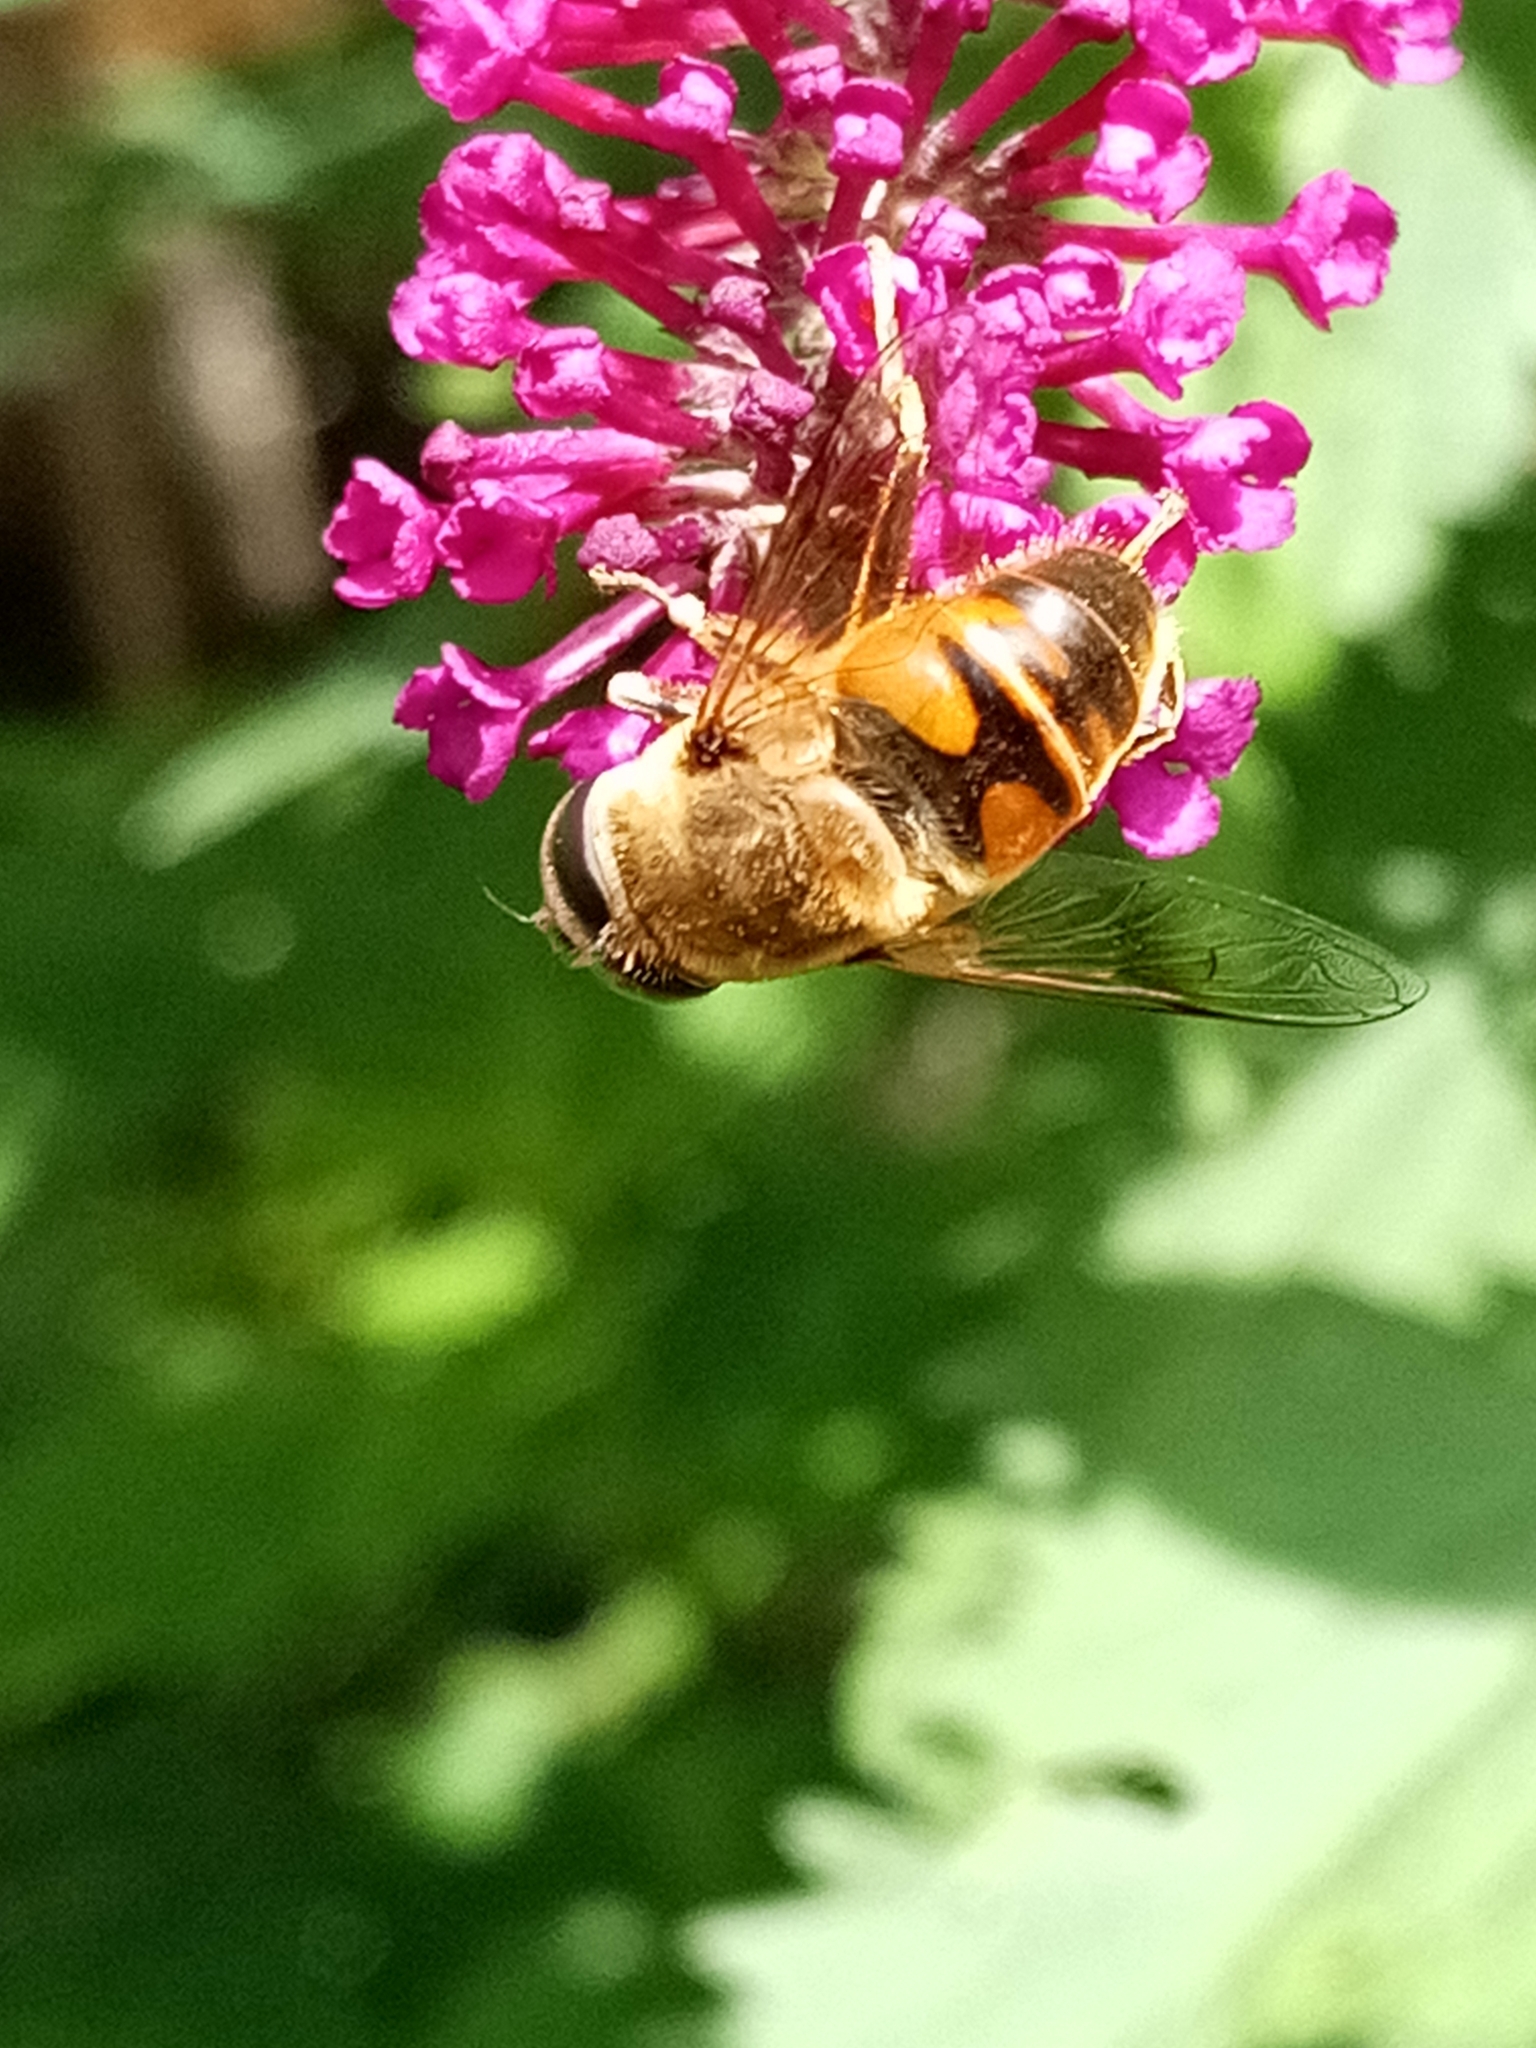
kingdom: Animalia
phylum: Arthropoda
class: Insecta
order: Diptera
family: Syrphidae
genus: Eristalis
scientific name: Eristalis tenax
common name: Drone fly
